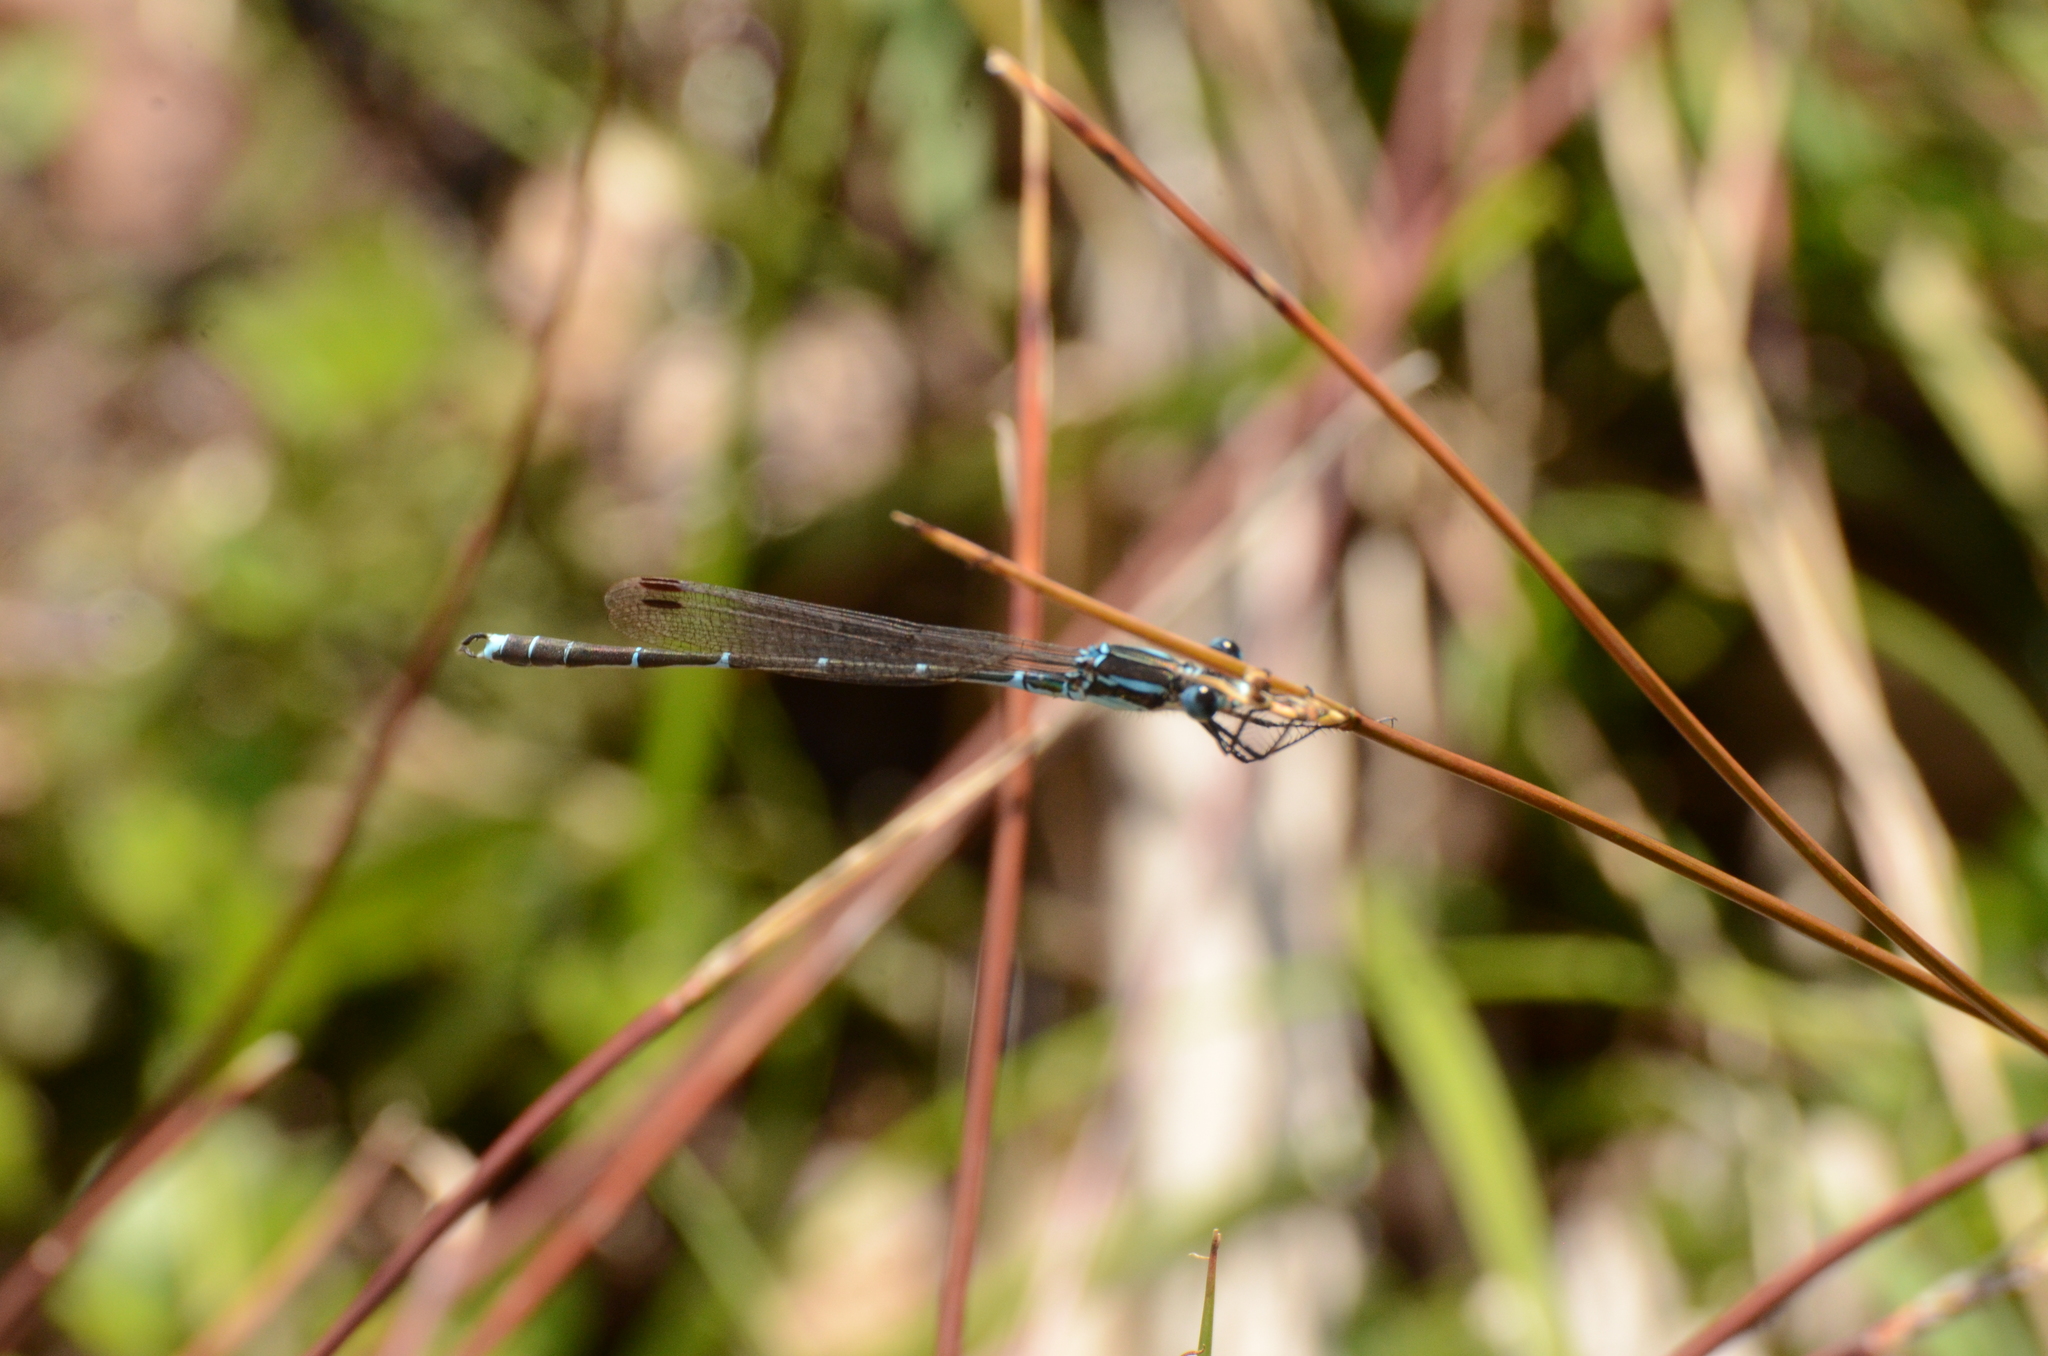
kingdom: Animalia
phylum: Arthropoda
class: Insecta
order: Odonata
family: Lestidae
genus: Austrolestes
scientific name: Austrolestes colensonis
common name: Blue damselfly
